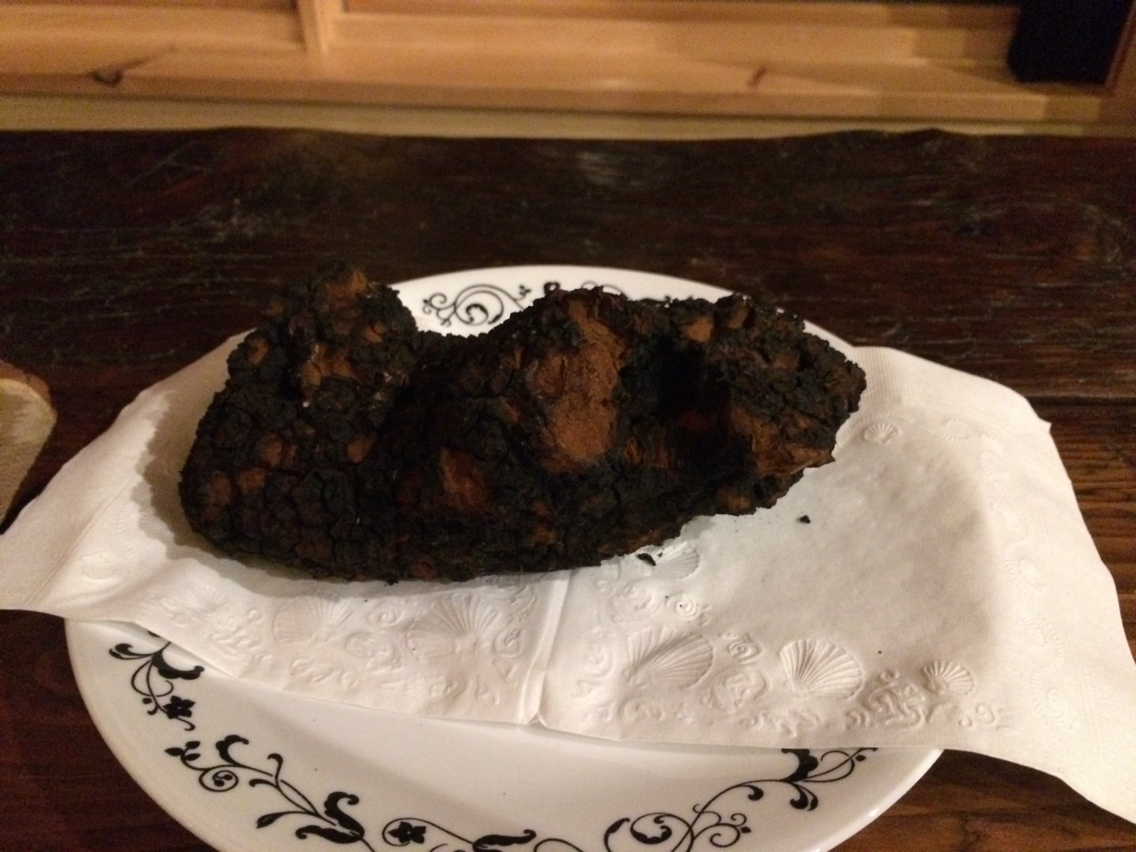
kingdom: Fungi
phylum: Basidiomycota
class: Agaricomycetes
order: Hymenochaetales
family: Hymenochaetaceae
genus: Inonotus
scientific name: Inonotus obliquus
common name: Chaga
